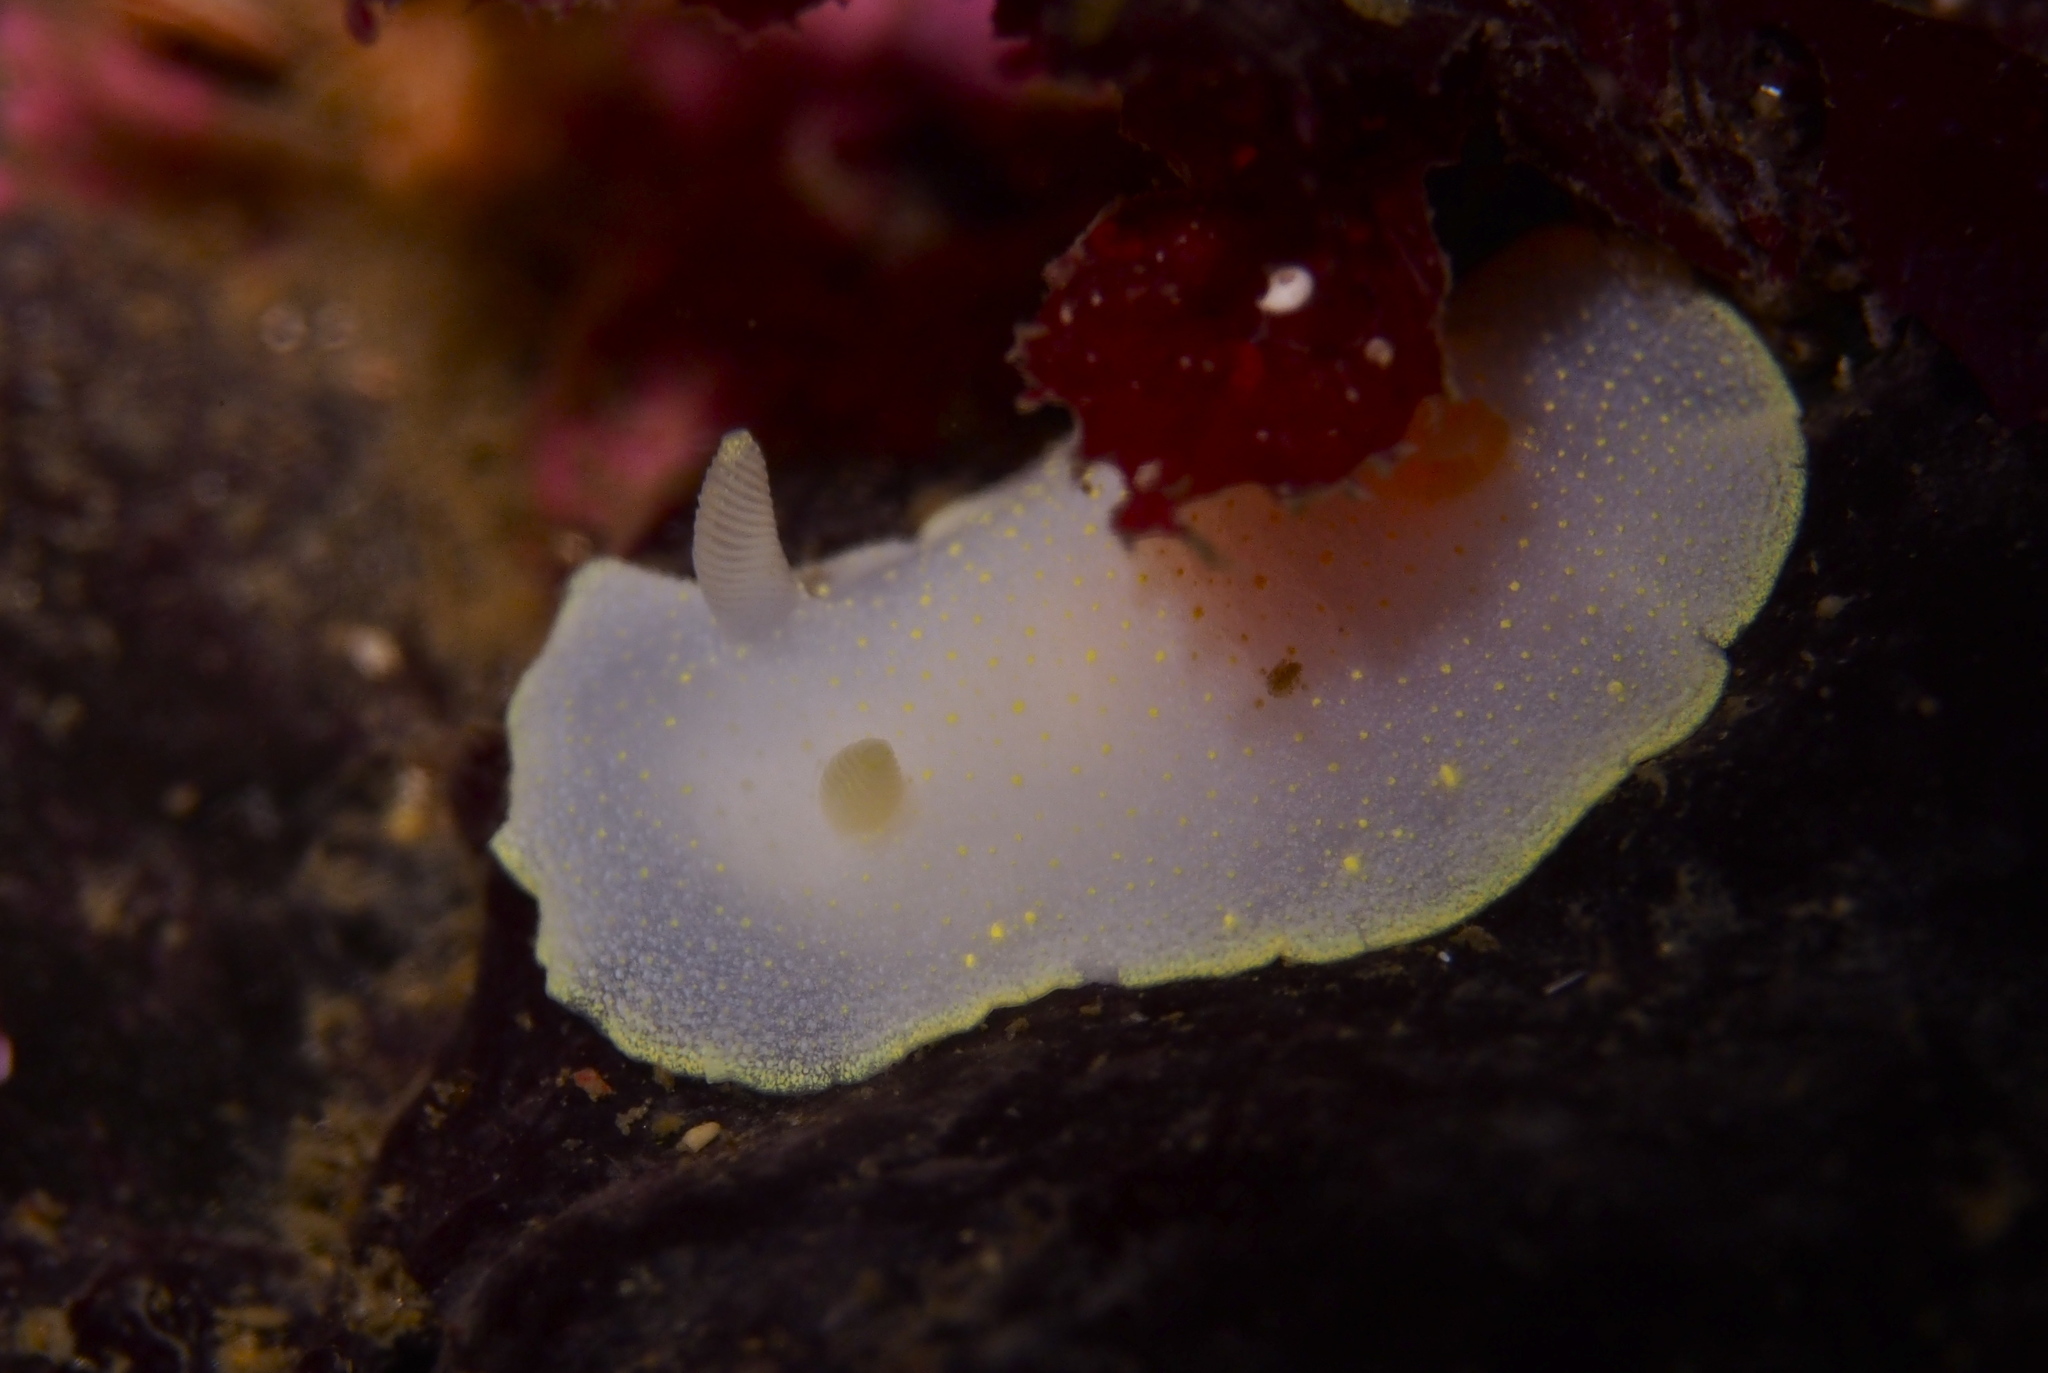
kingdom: Animalia
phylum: Mollusca
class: Gastropoda
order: Nudibranchia
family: Cadlinidae
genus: Cadlina
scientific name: Cadlina laevis
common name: White atlantic cadlina
